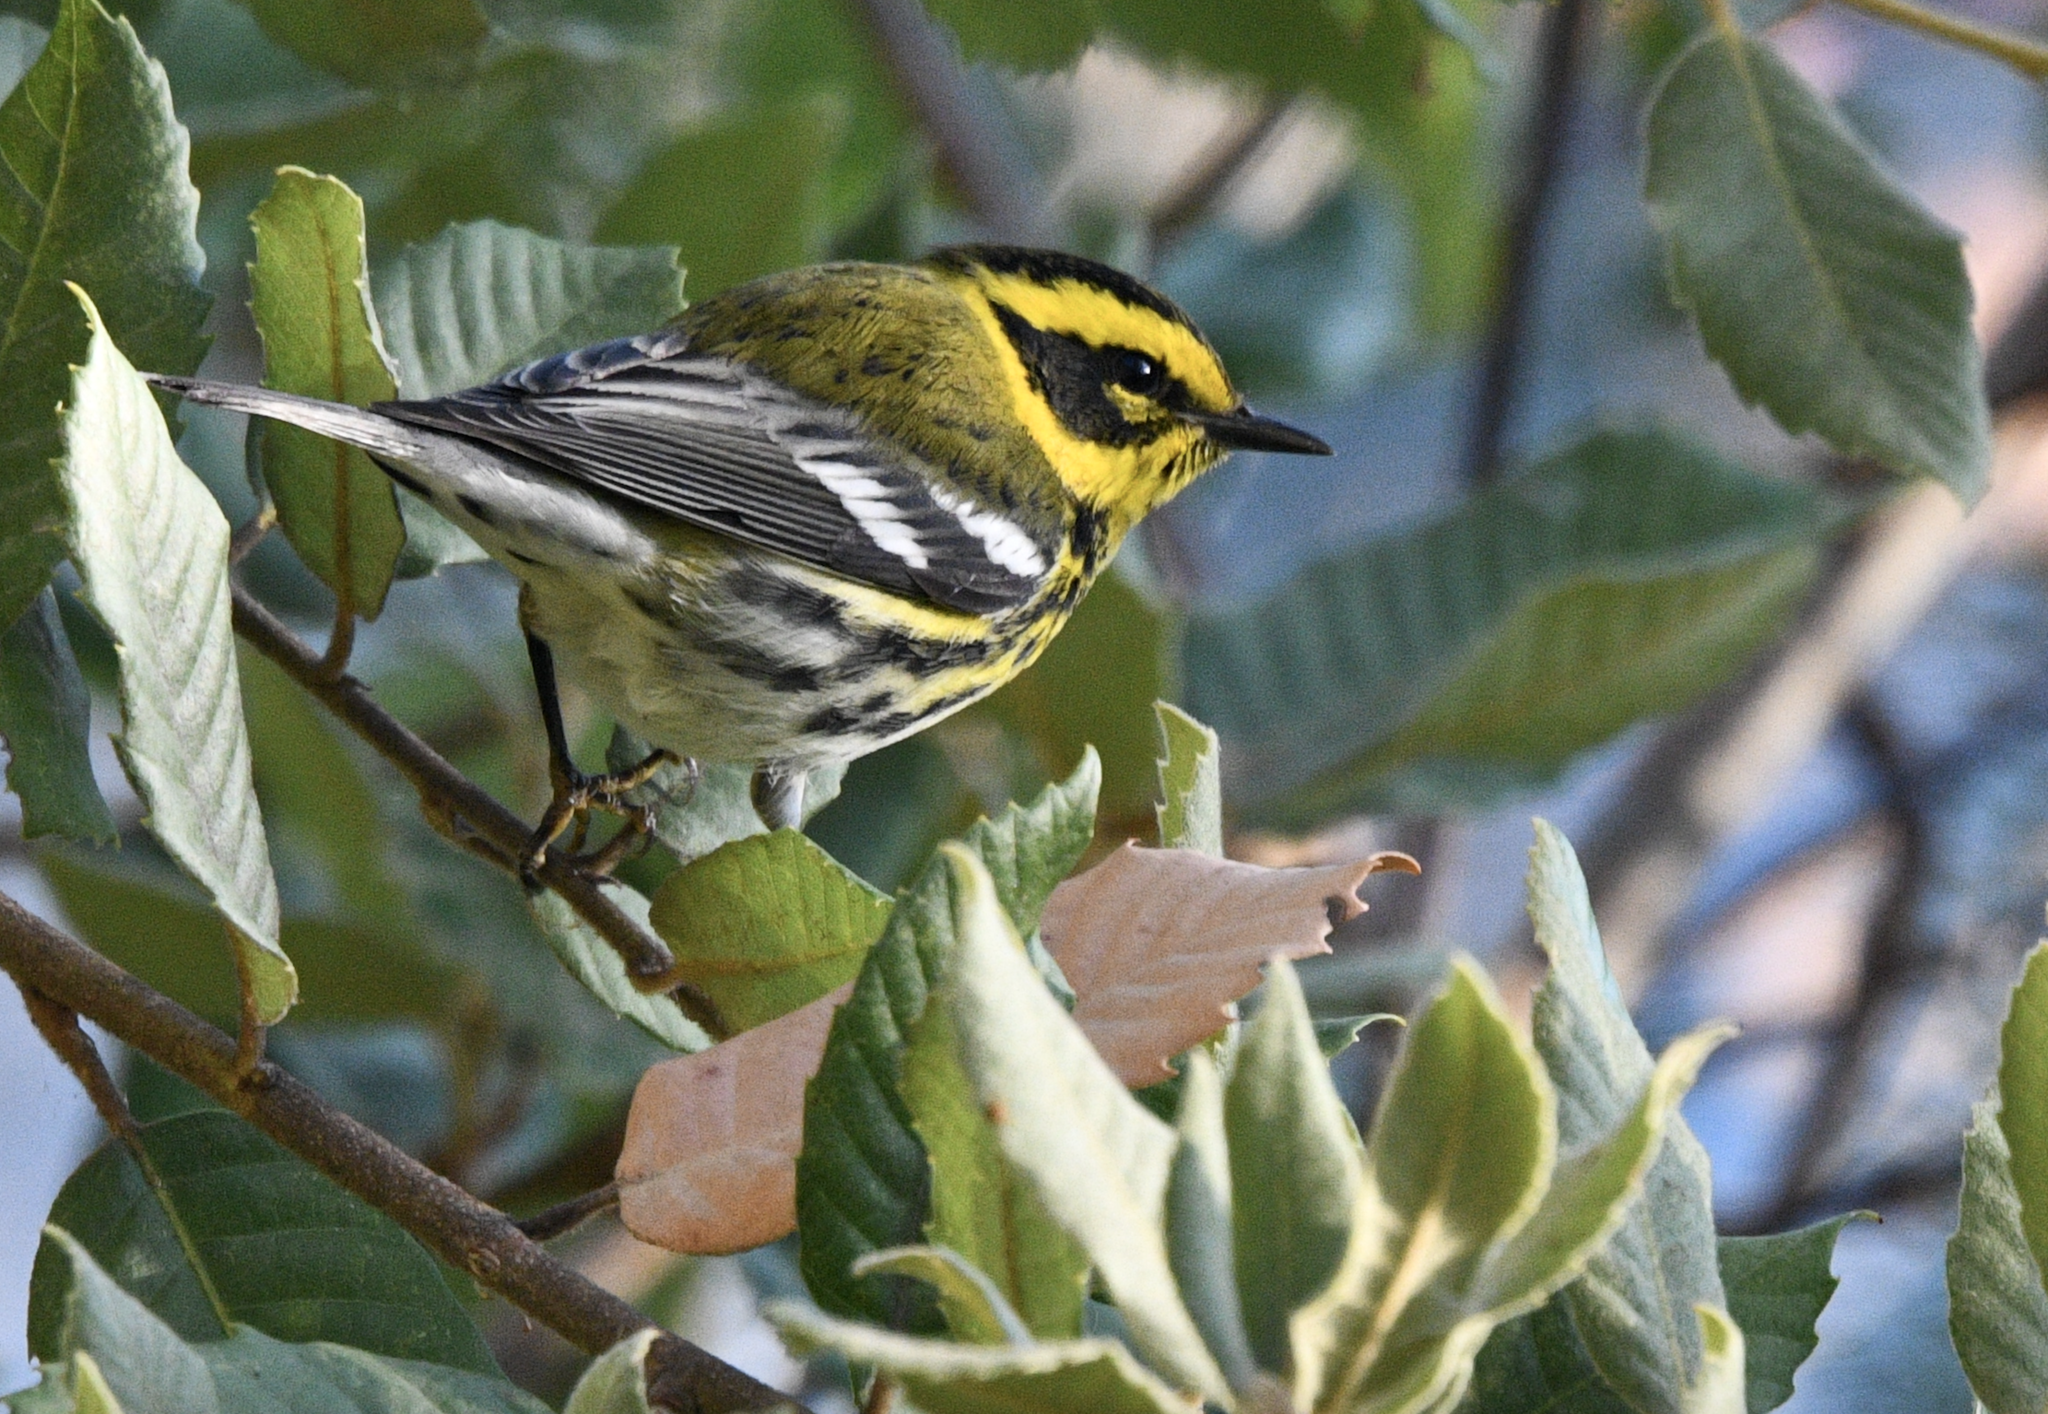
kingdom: Animalia
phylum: Chordata
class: Aves
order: Passeriformes
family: Parulidae
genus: Setophaga
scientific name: Setophaga townsendi
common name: Townsend's warbler
